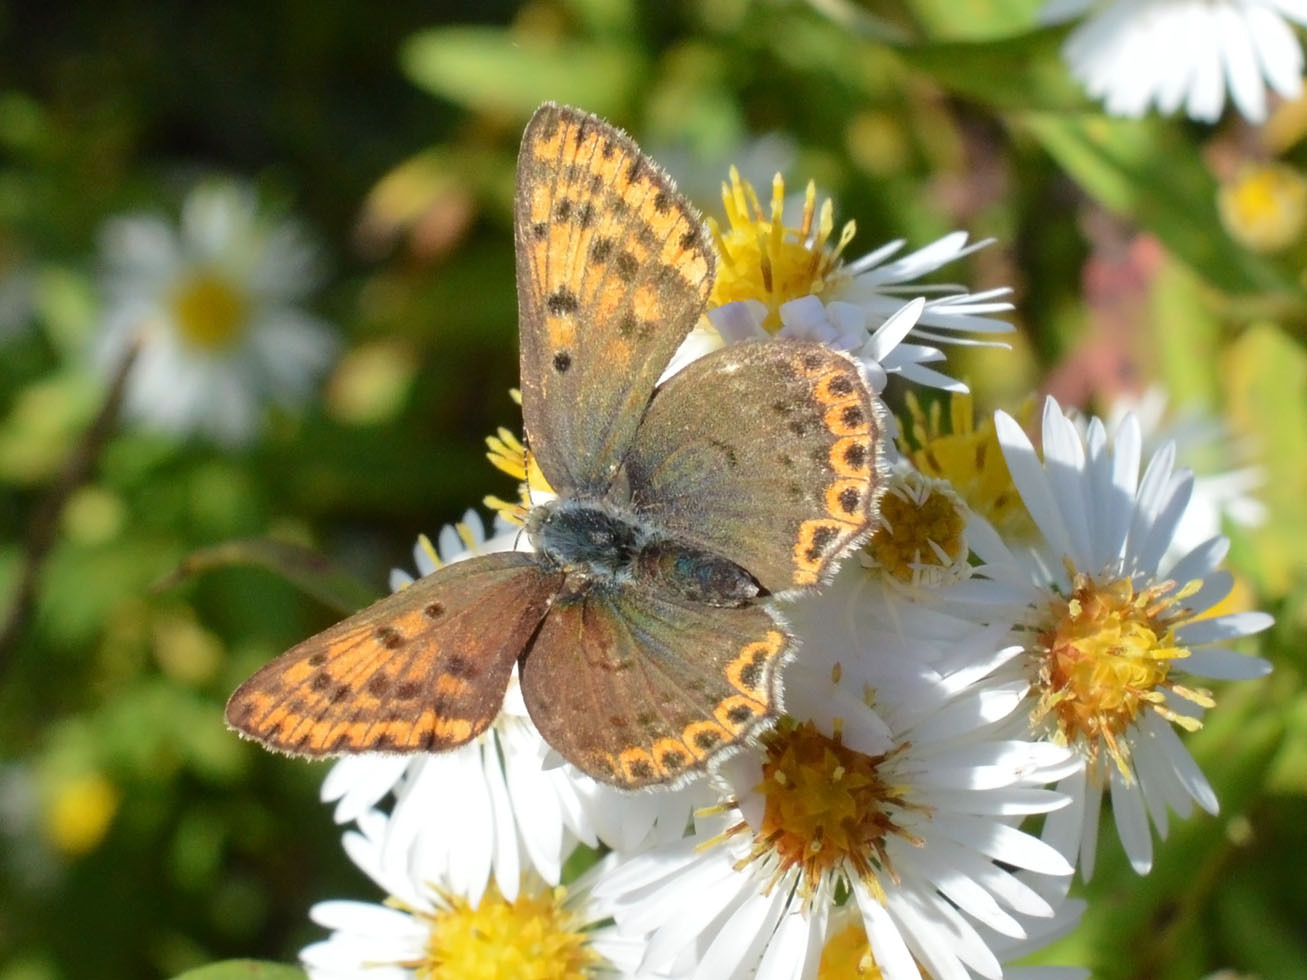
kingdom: Animalia
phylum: Arthropoda
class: Insecta
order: Lepidoptera
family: Lycaenidae
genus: Loweia
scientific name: Loweia tityrus
